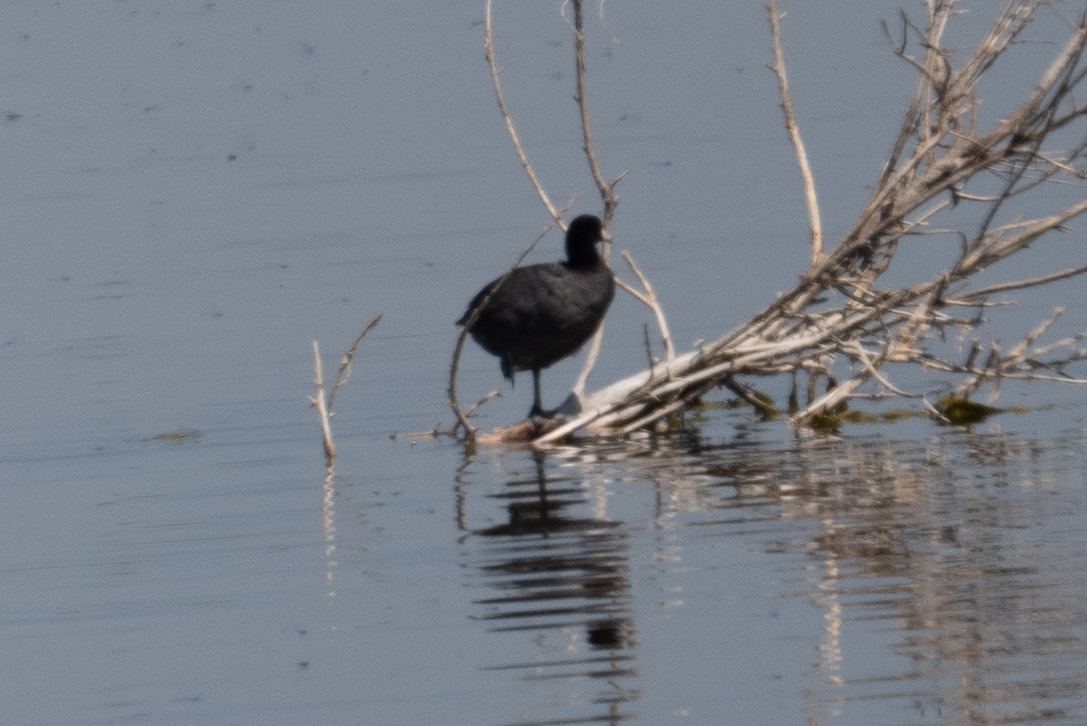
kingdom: Animalia
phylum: Chordata
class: Aves
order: Gruiformes
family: Rallidae
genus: Fulica
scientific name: Fulica americana
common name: American coot
